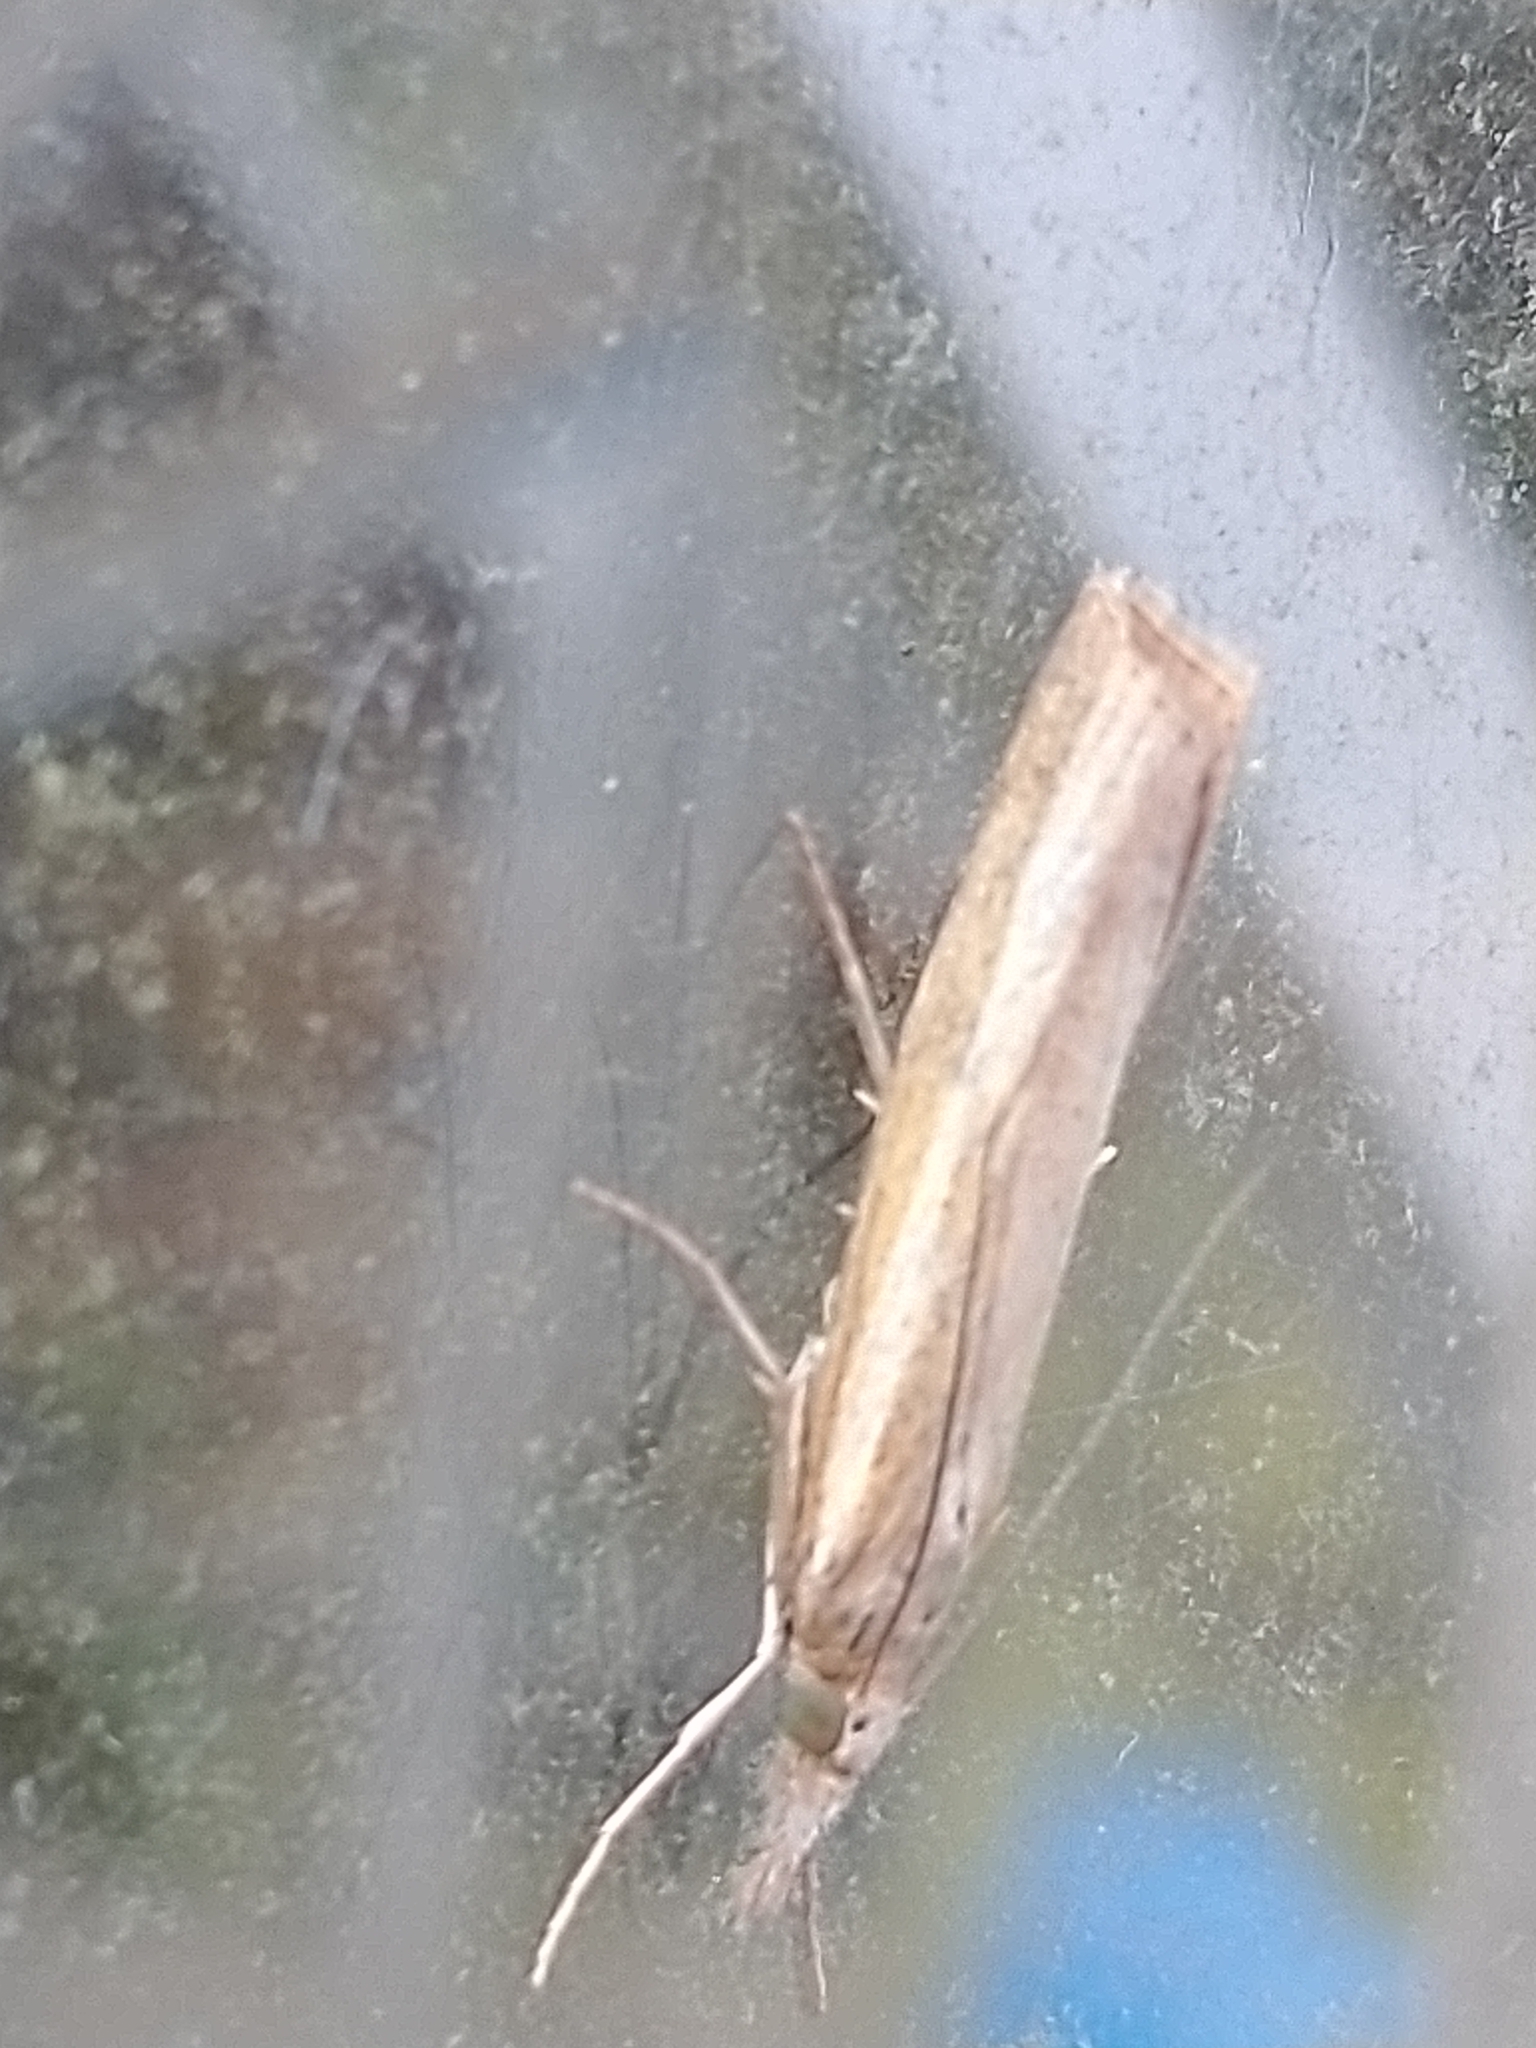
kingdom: Animalia
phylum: Arthropoda
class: Insecta
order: Lepidoptera
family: Crambidae
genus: Agriphila
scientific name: Agriphila tristellus
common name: Common grass-veneer
